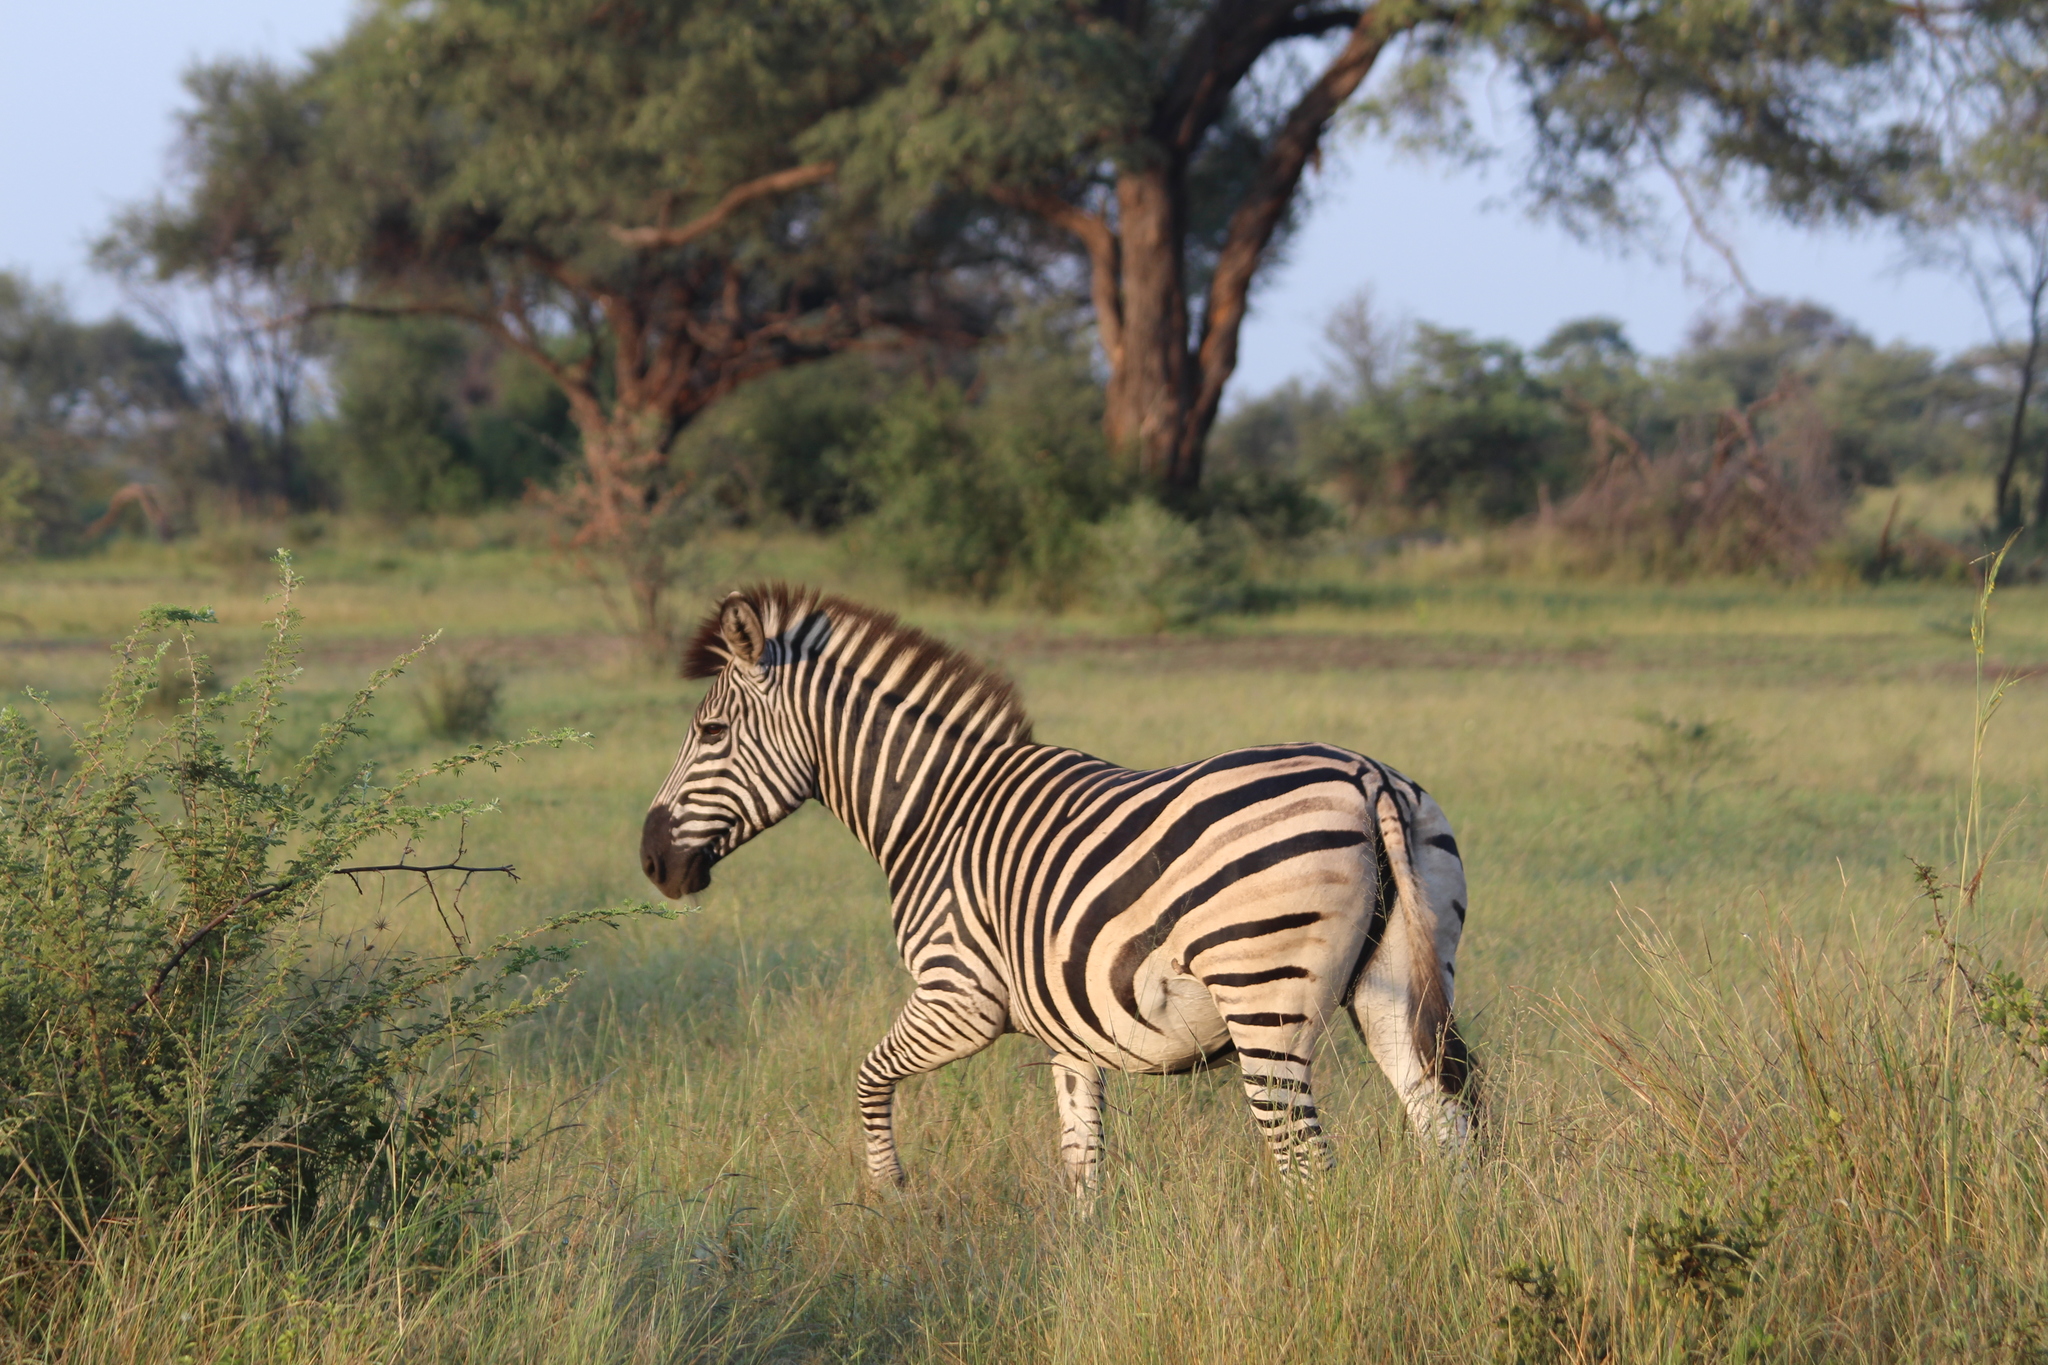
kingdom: Animalia
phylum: Chordata
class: Mammalia
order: Perissodactyla
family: Equidae
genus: Equus
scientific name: Equus quagga
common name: Plains zebra
